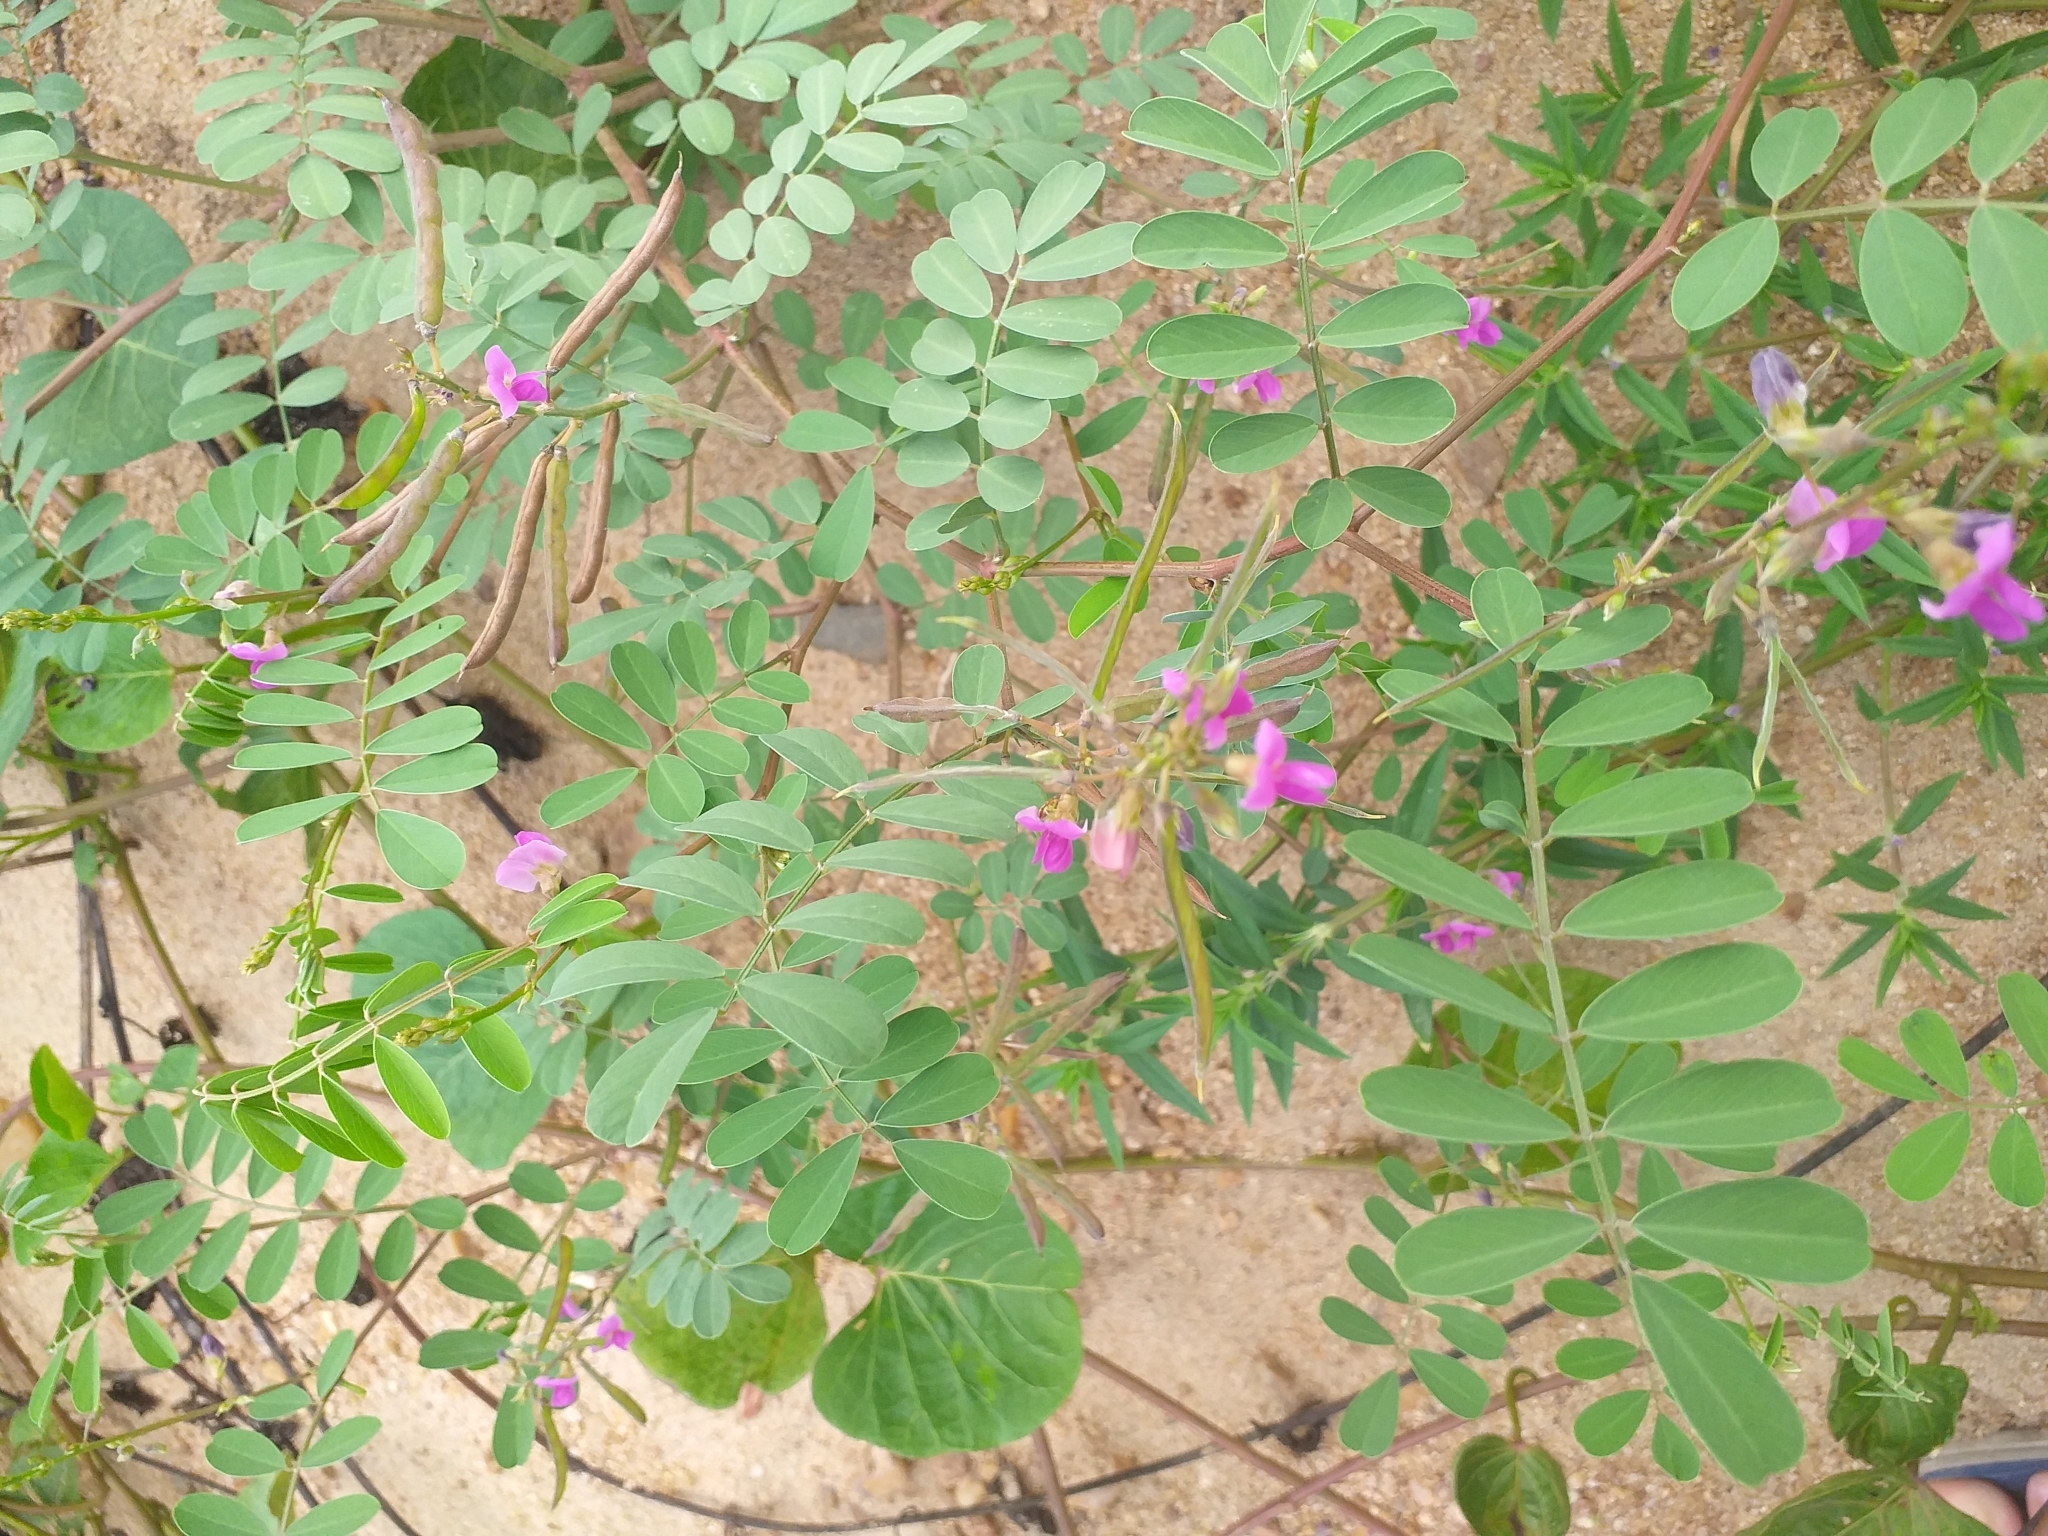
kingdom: Plantae
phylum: Tracheophyta
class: Magnoliopsida
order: Fabales
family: Fabaceae
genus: Tephrosia
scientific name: Tephrosia purpurea
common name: Fishpoison
